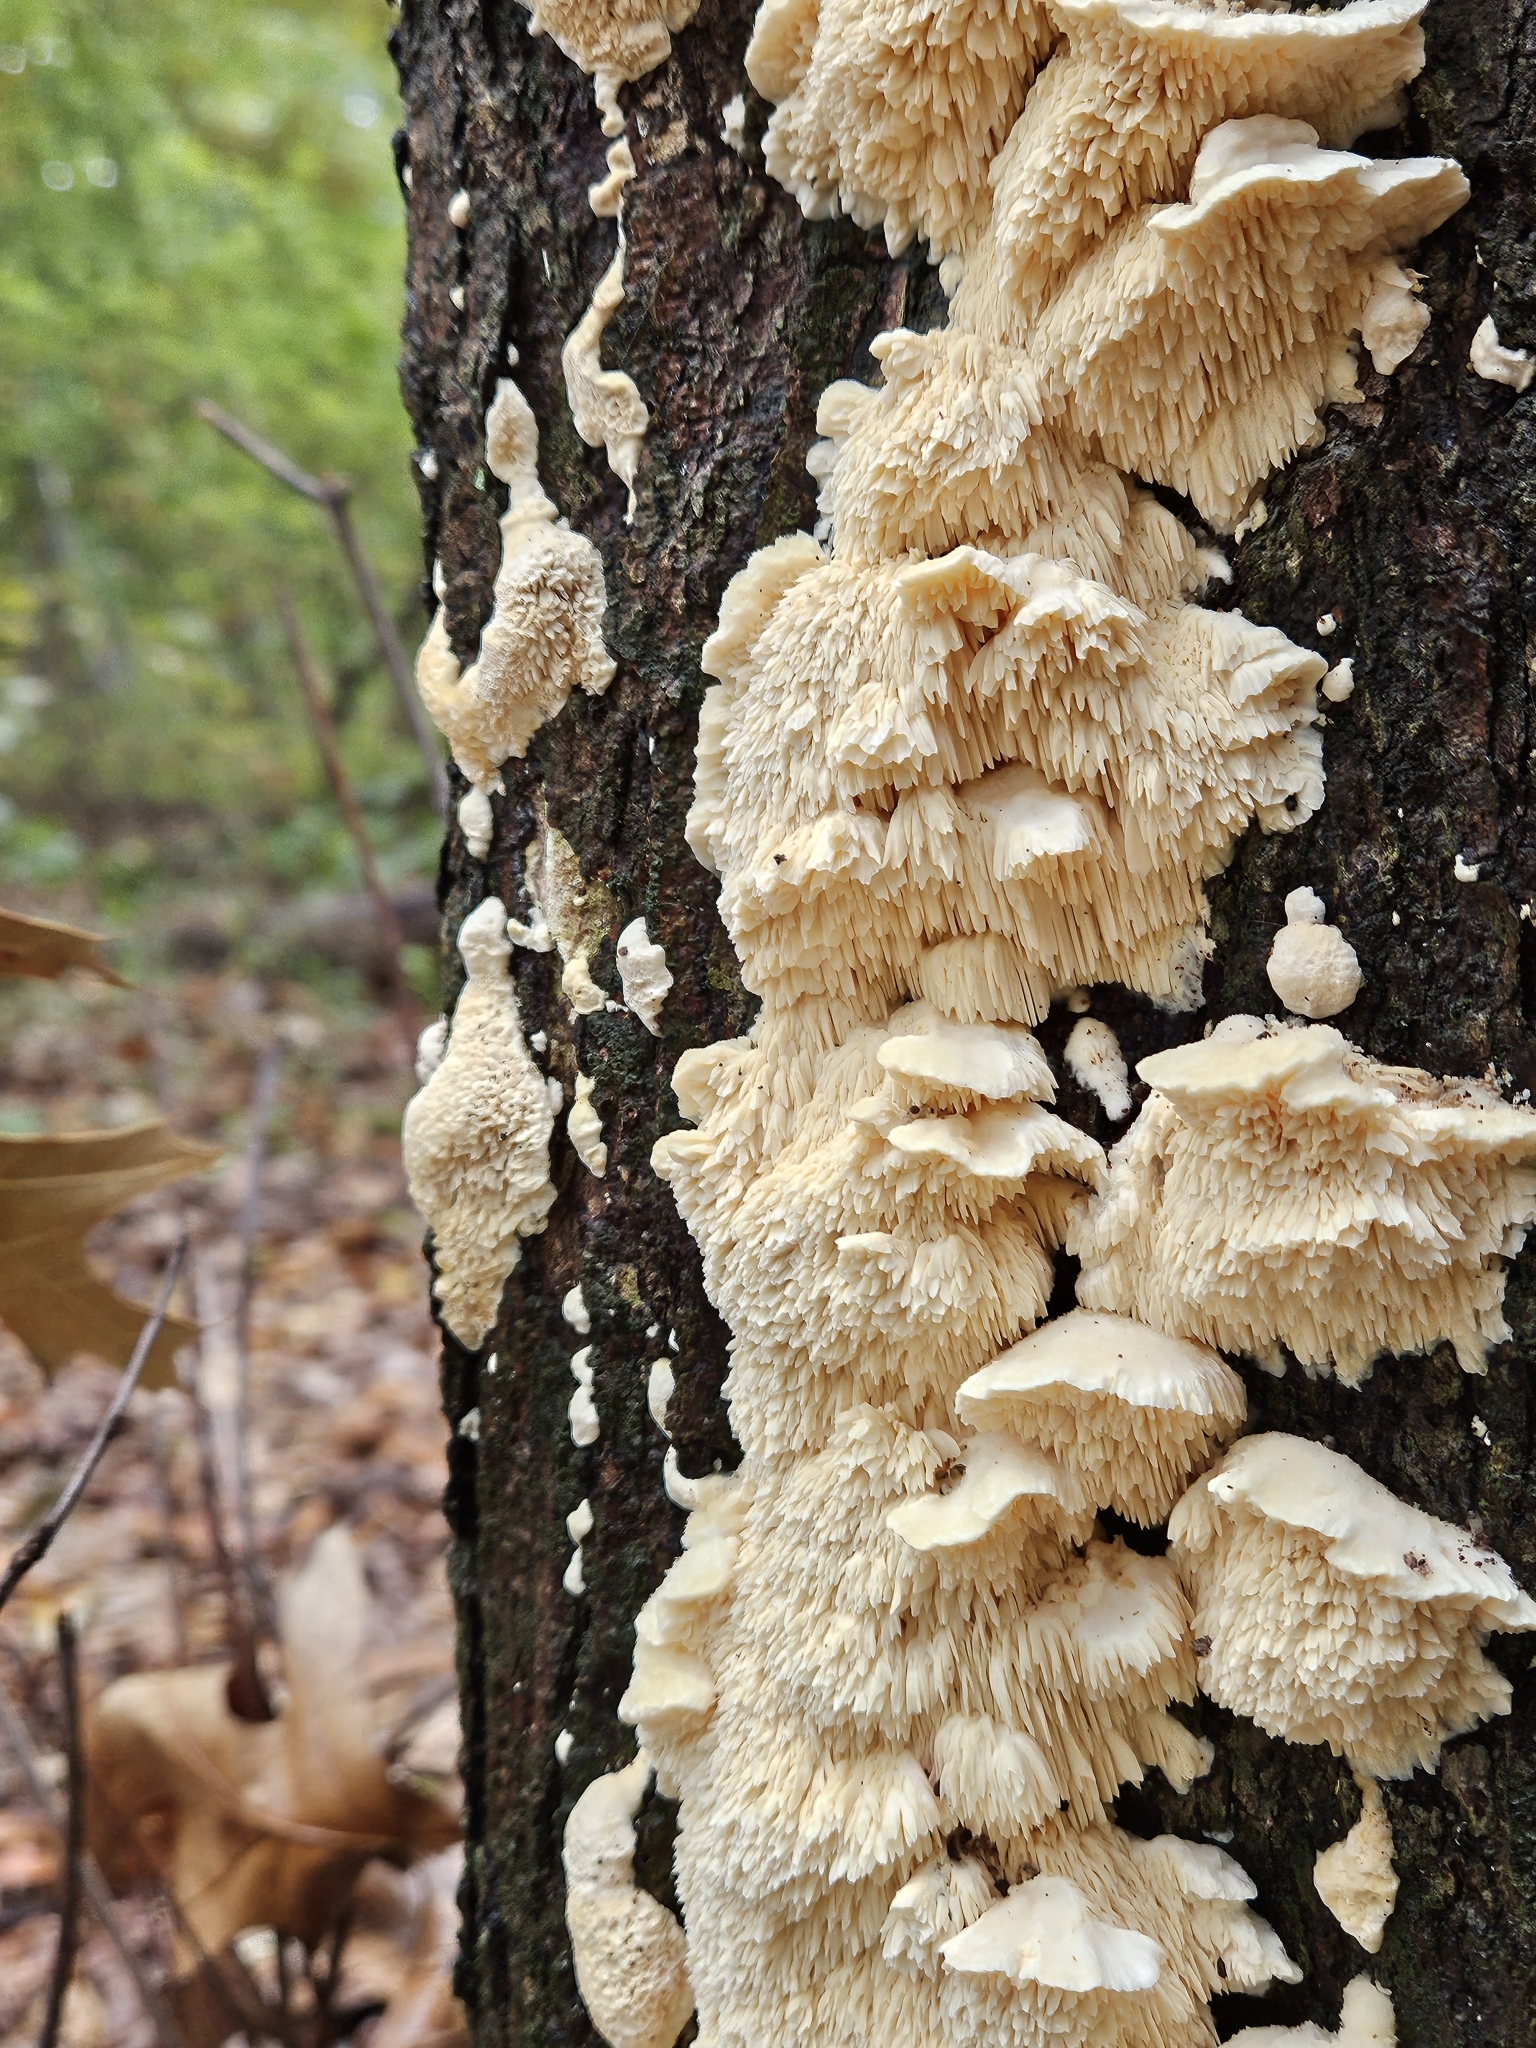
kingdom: Fungi
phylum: Basidiomycota
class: Agaricomycetes
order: Polyporales
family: Meruliaceae
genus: Irpiciporus
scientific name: Irpiciporus pachyodon
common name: Marshmallow polypore
